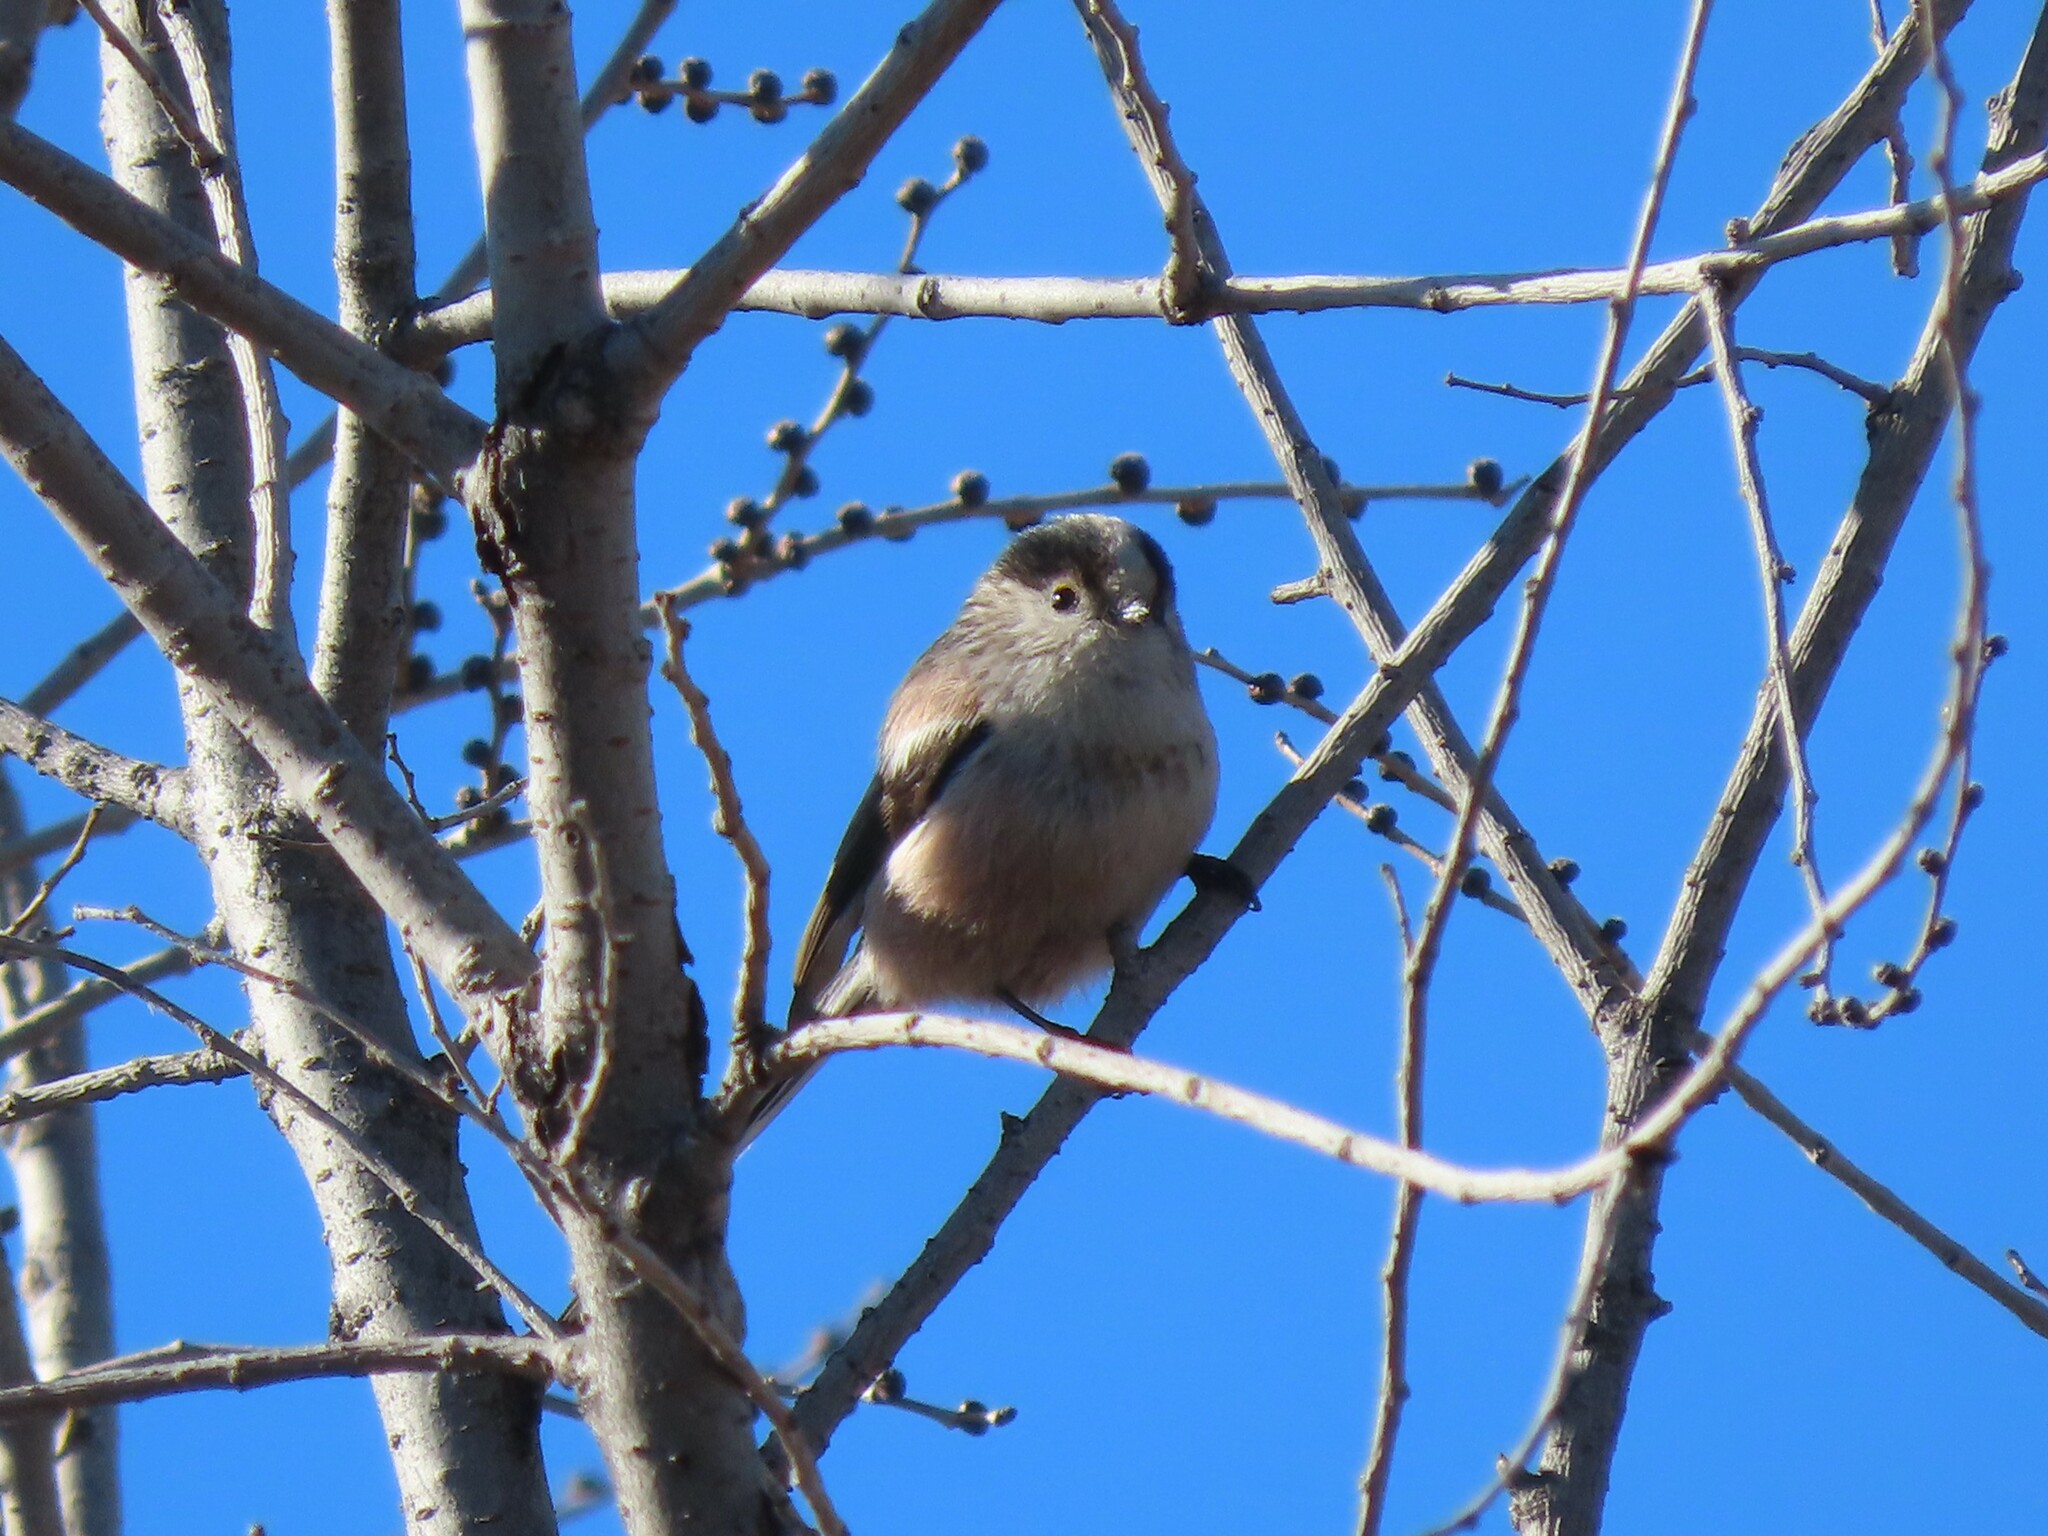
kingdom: Animalia
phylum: Chordata
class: Aves
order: Passeriformes
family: Aegithalidae
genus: Aegithalos
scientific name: Aegithalos caudatus
